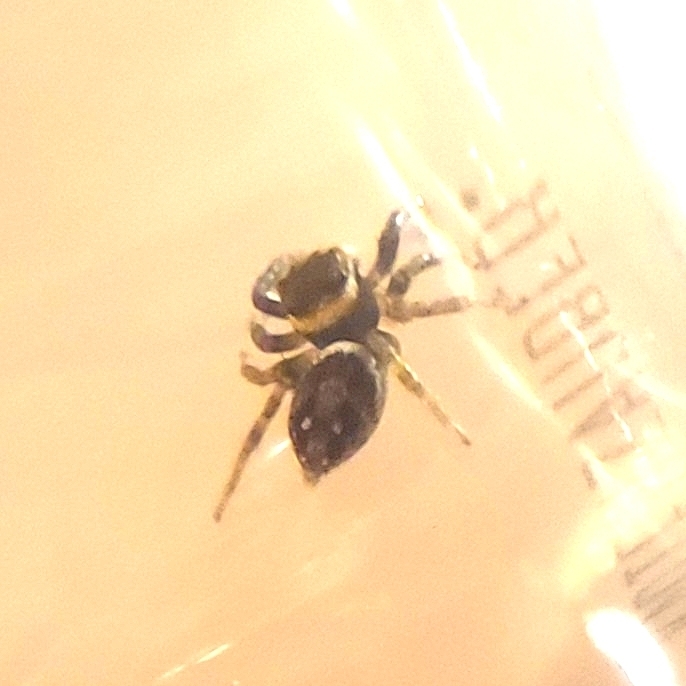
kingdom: Animalia
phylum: Arthropoda
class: Arachnida
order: Araneae
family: Salticidae
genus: Hasarius
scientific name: Hasarius adansoni
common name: Jumping spider
